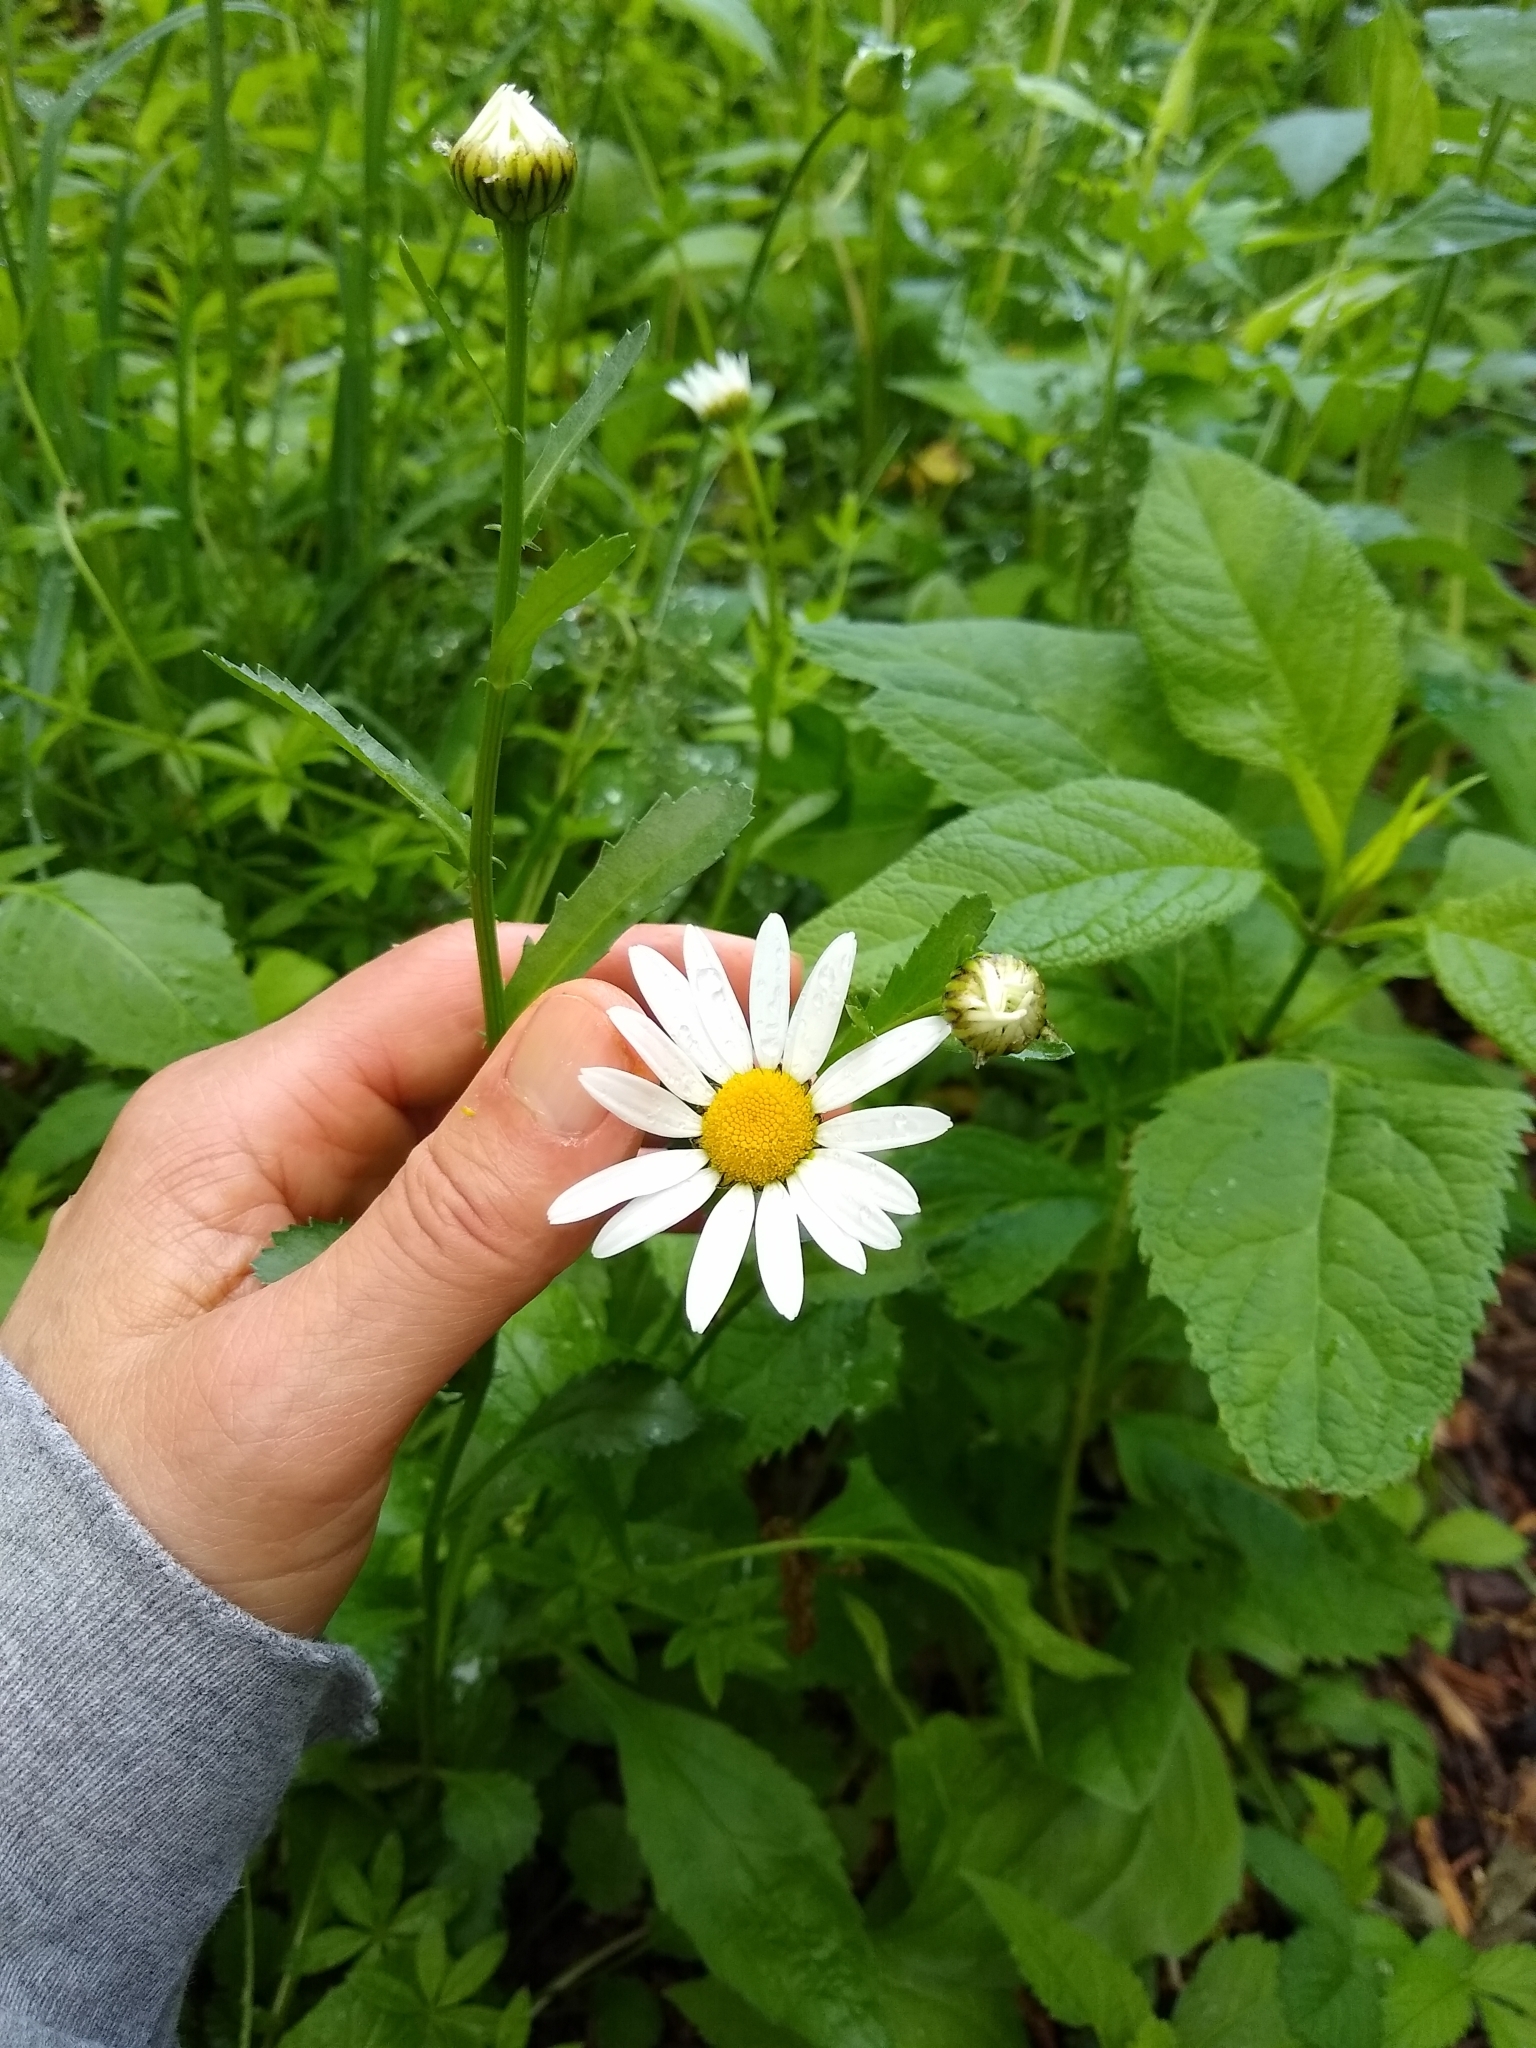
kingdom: Plantae
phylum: Tracheophyta
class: Magnoliopsida
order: Asterales
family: Asteraceae
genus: Leucanthemum
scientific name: Leucanthemum vulgare
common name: Oxeye daisy
